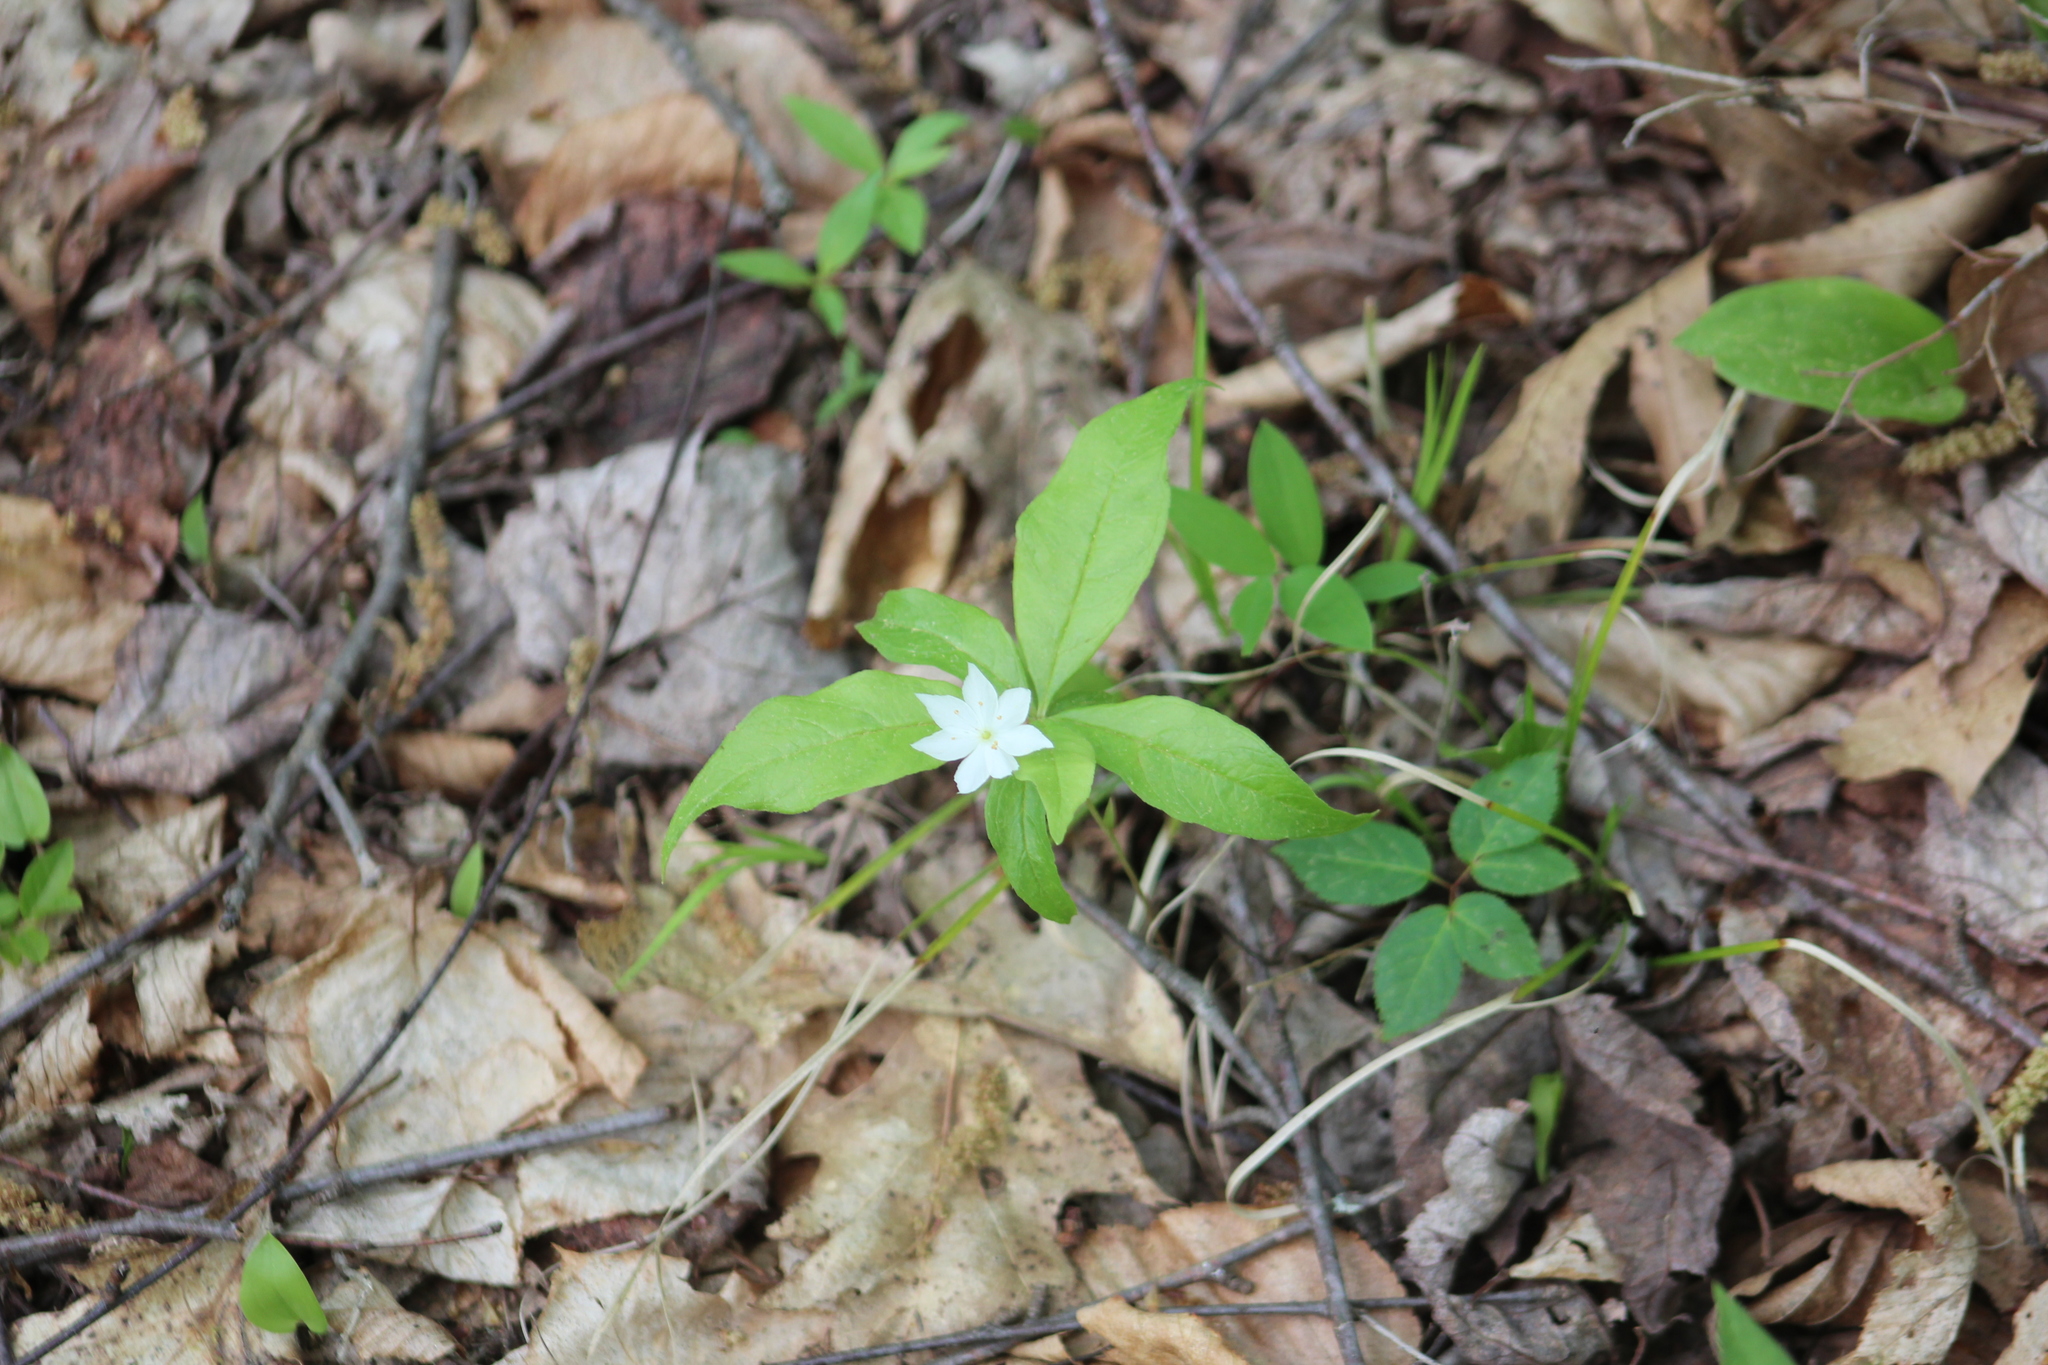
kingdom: Plantae
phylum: Tracheophyta
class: Magnoliopsida
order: Ericales
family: Primulaceae
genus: Lysimachia
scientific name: Lysimachia borealis
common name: American starflower
